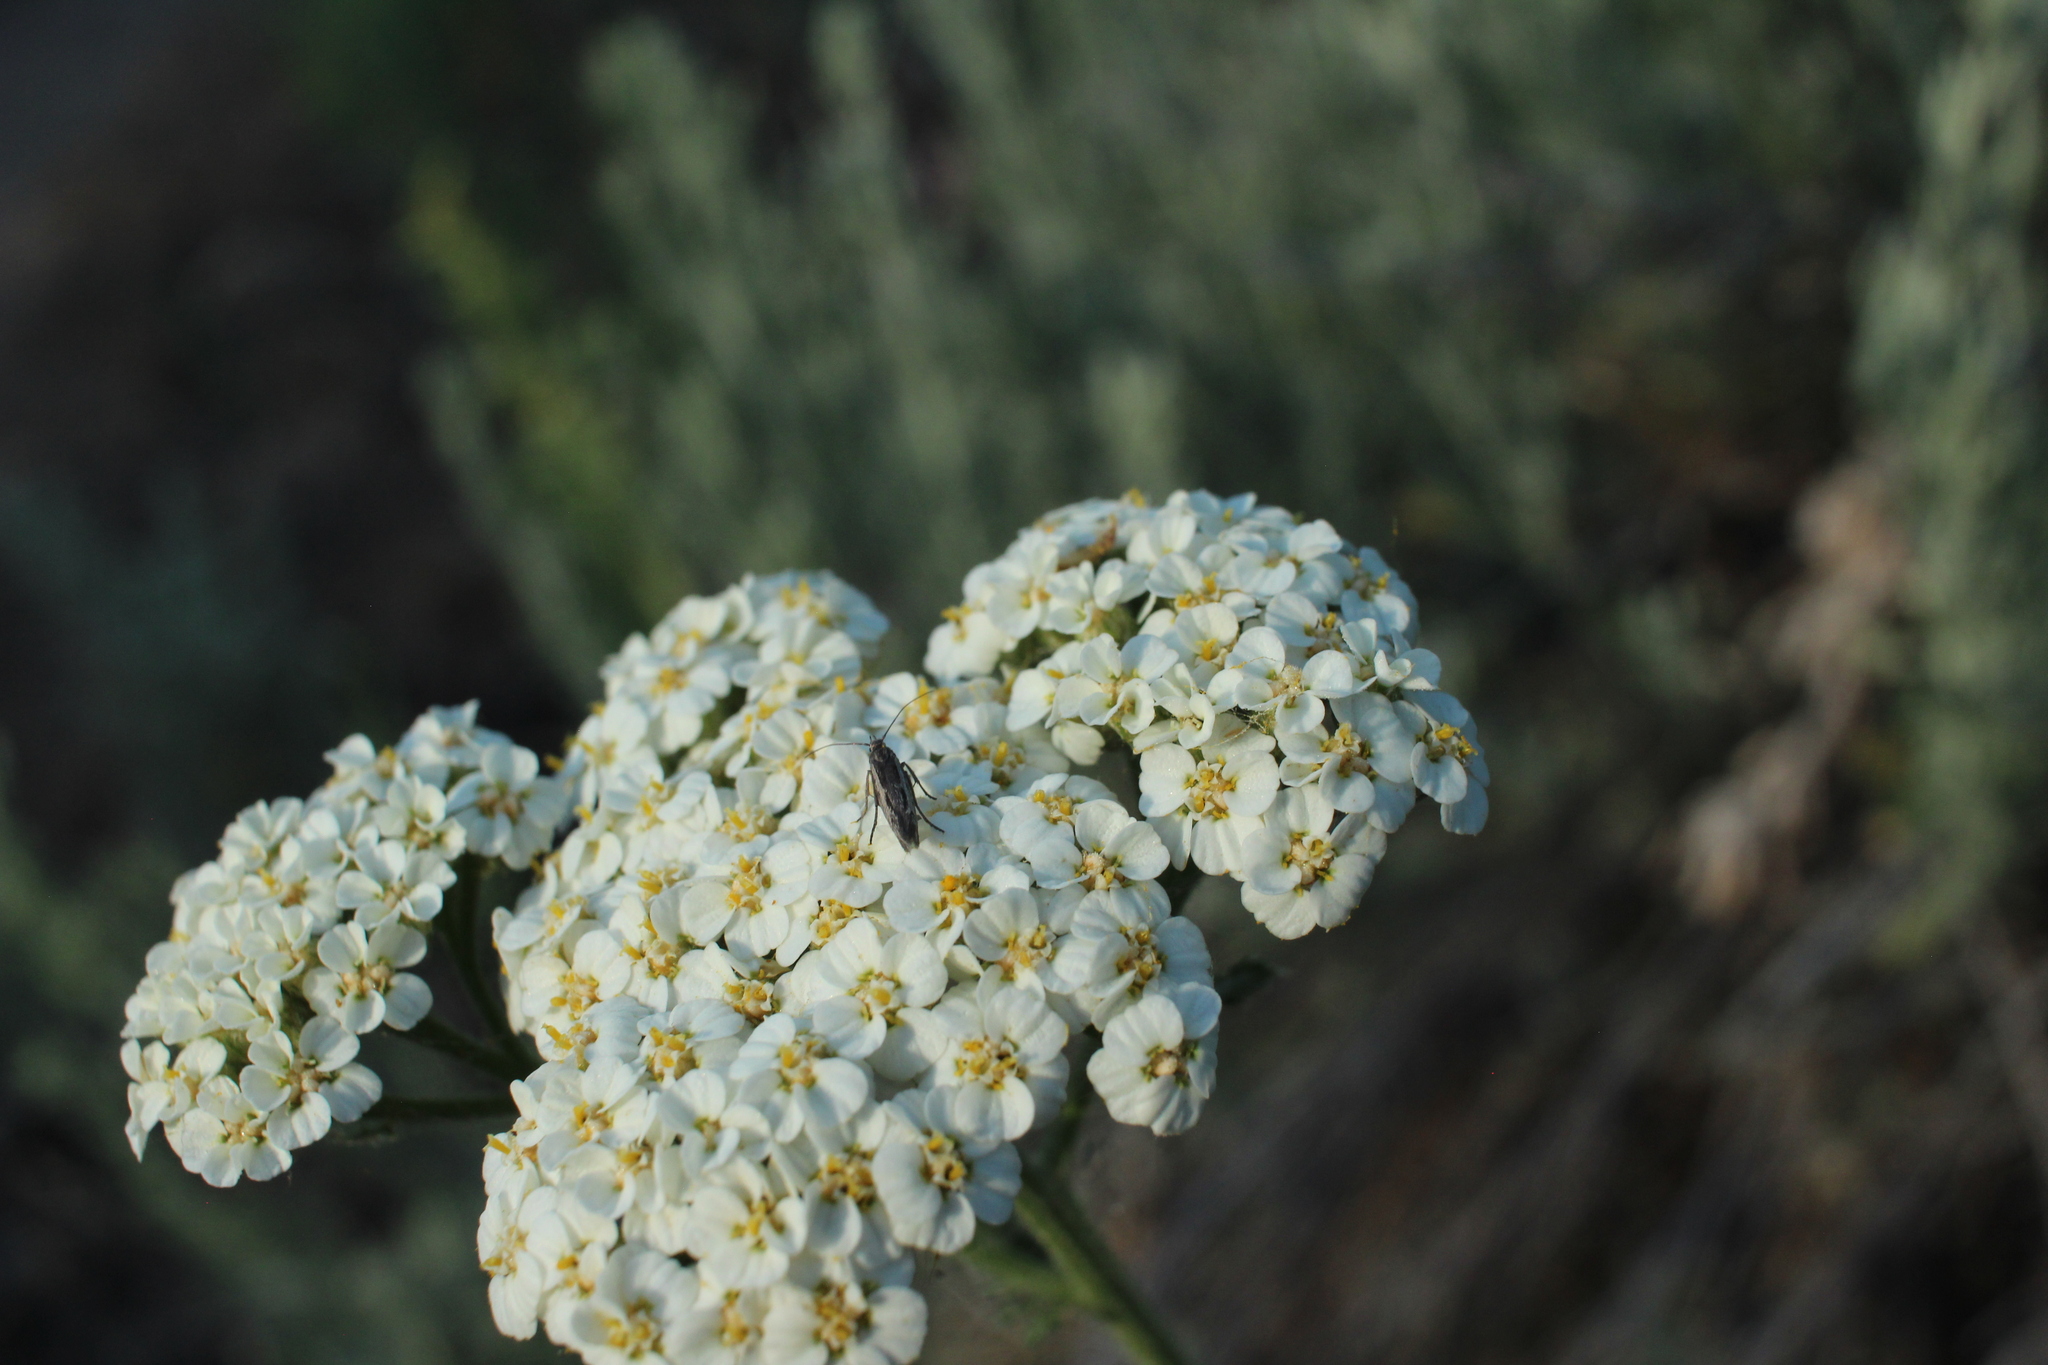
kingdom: Plantae
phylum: Tracheophyta
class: Magnoliopsida
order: Asterales
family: Asteraceae
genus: Achillea
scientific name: Achillea millefolium
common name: Yarrow
